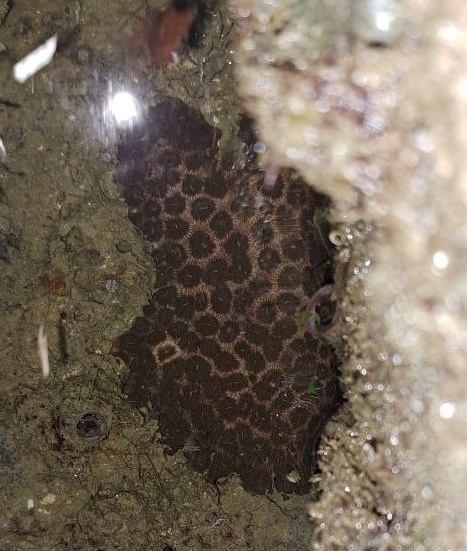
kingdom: Animalia
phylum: Cnidaria
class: Anthozoa
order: Scleractinia
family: Oulastreidae
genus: Oulastrea
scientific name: Oulastrea crispata
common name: Zebra coral
